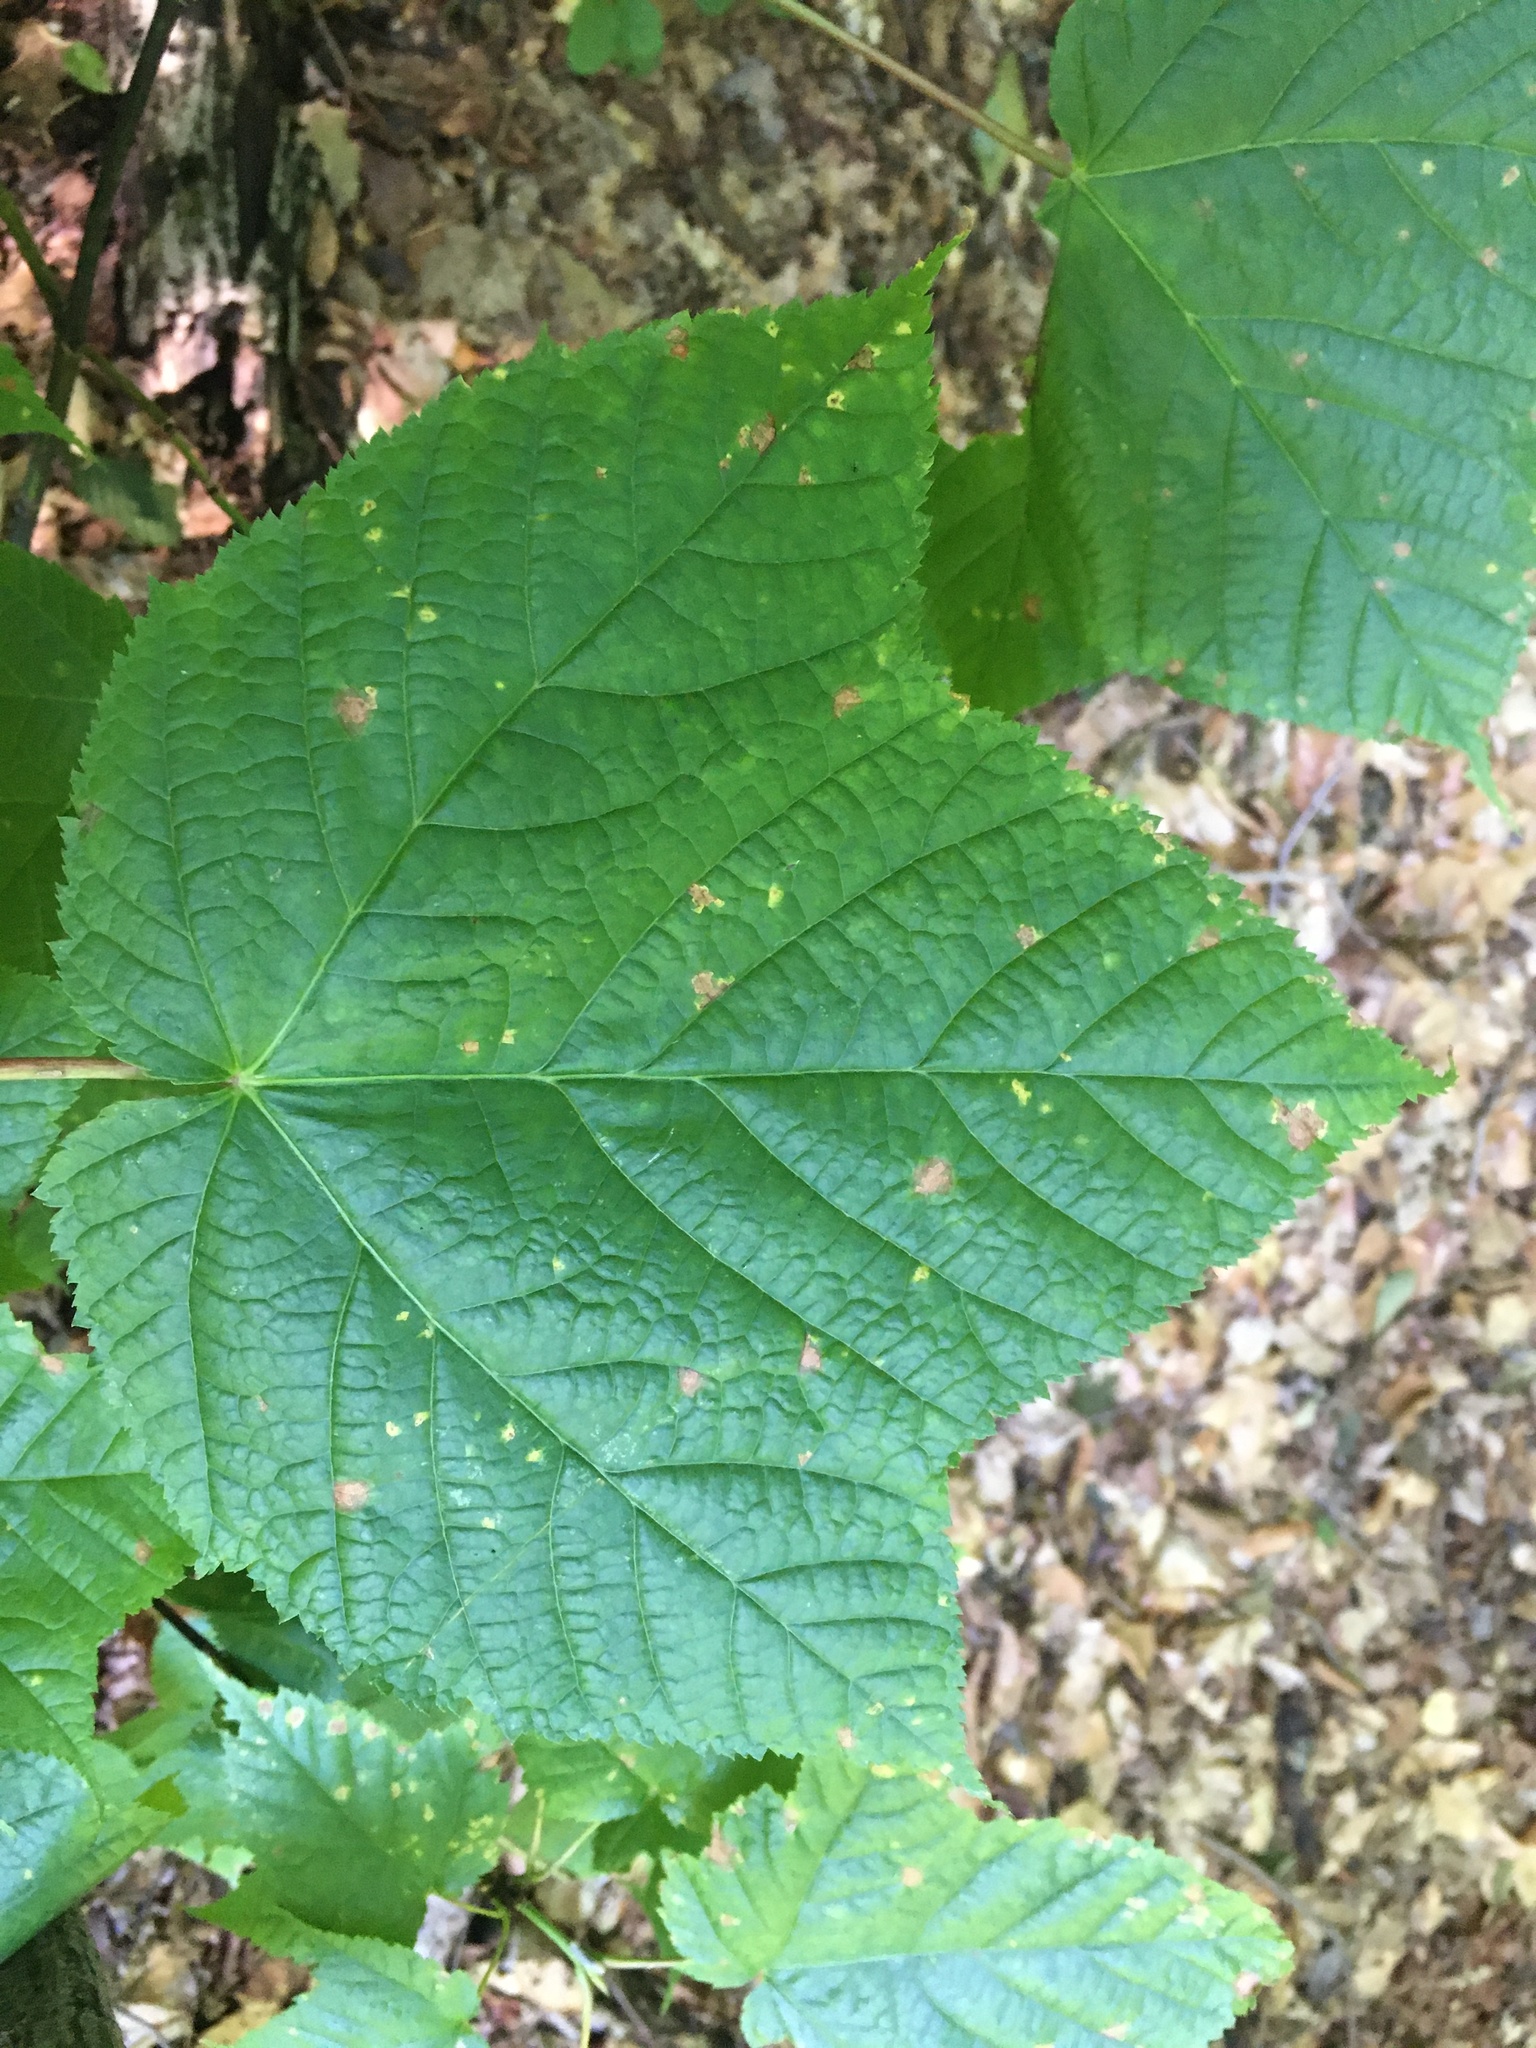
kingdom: Plantae
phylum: Tracheophyta
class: Magnoliopsida
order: Sapindales
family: Sapindaceae
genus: Acer
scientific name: Acer pensylvanicum
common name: Moosewood
